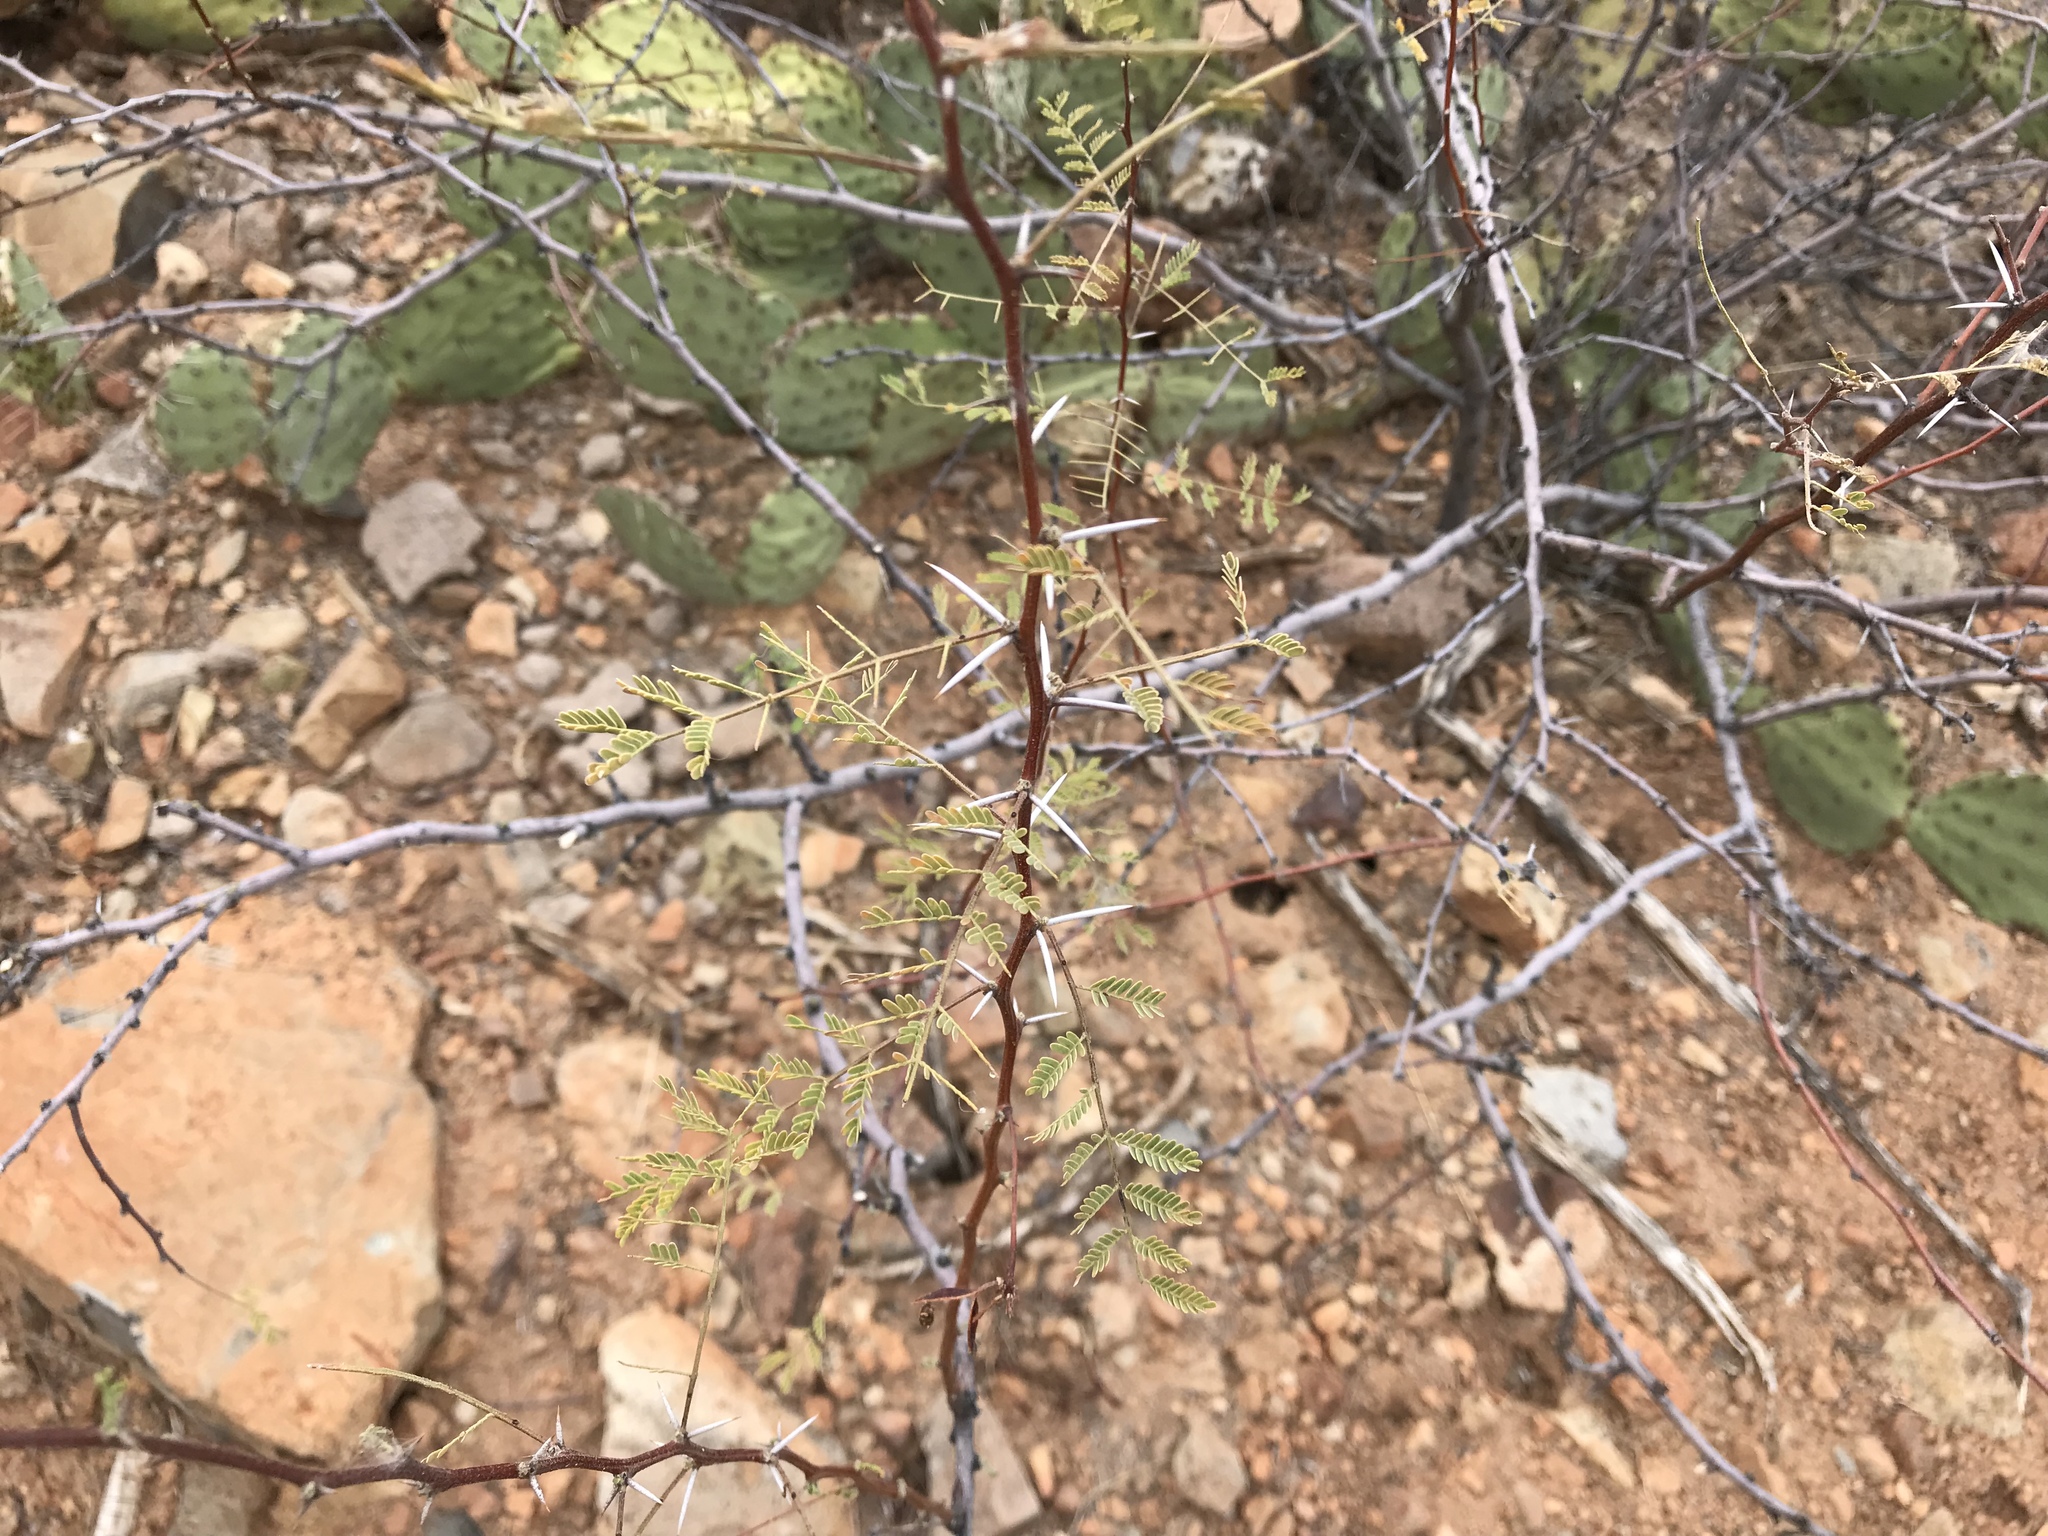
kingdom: Plantae
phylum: Tracheophyta
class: Magnoliopsida
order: Fabales
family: Fabaceae
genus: Vachellia
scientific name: Vachellia constricta
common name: Mescat acacia
